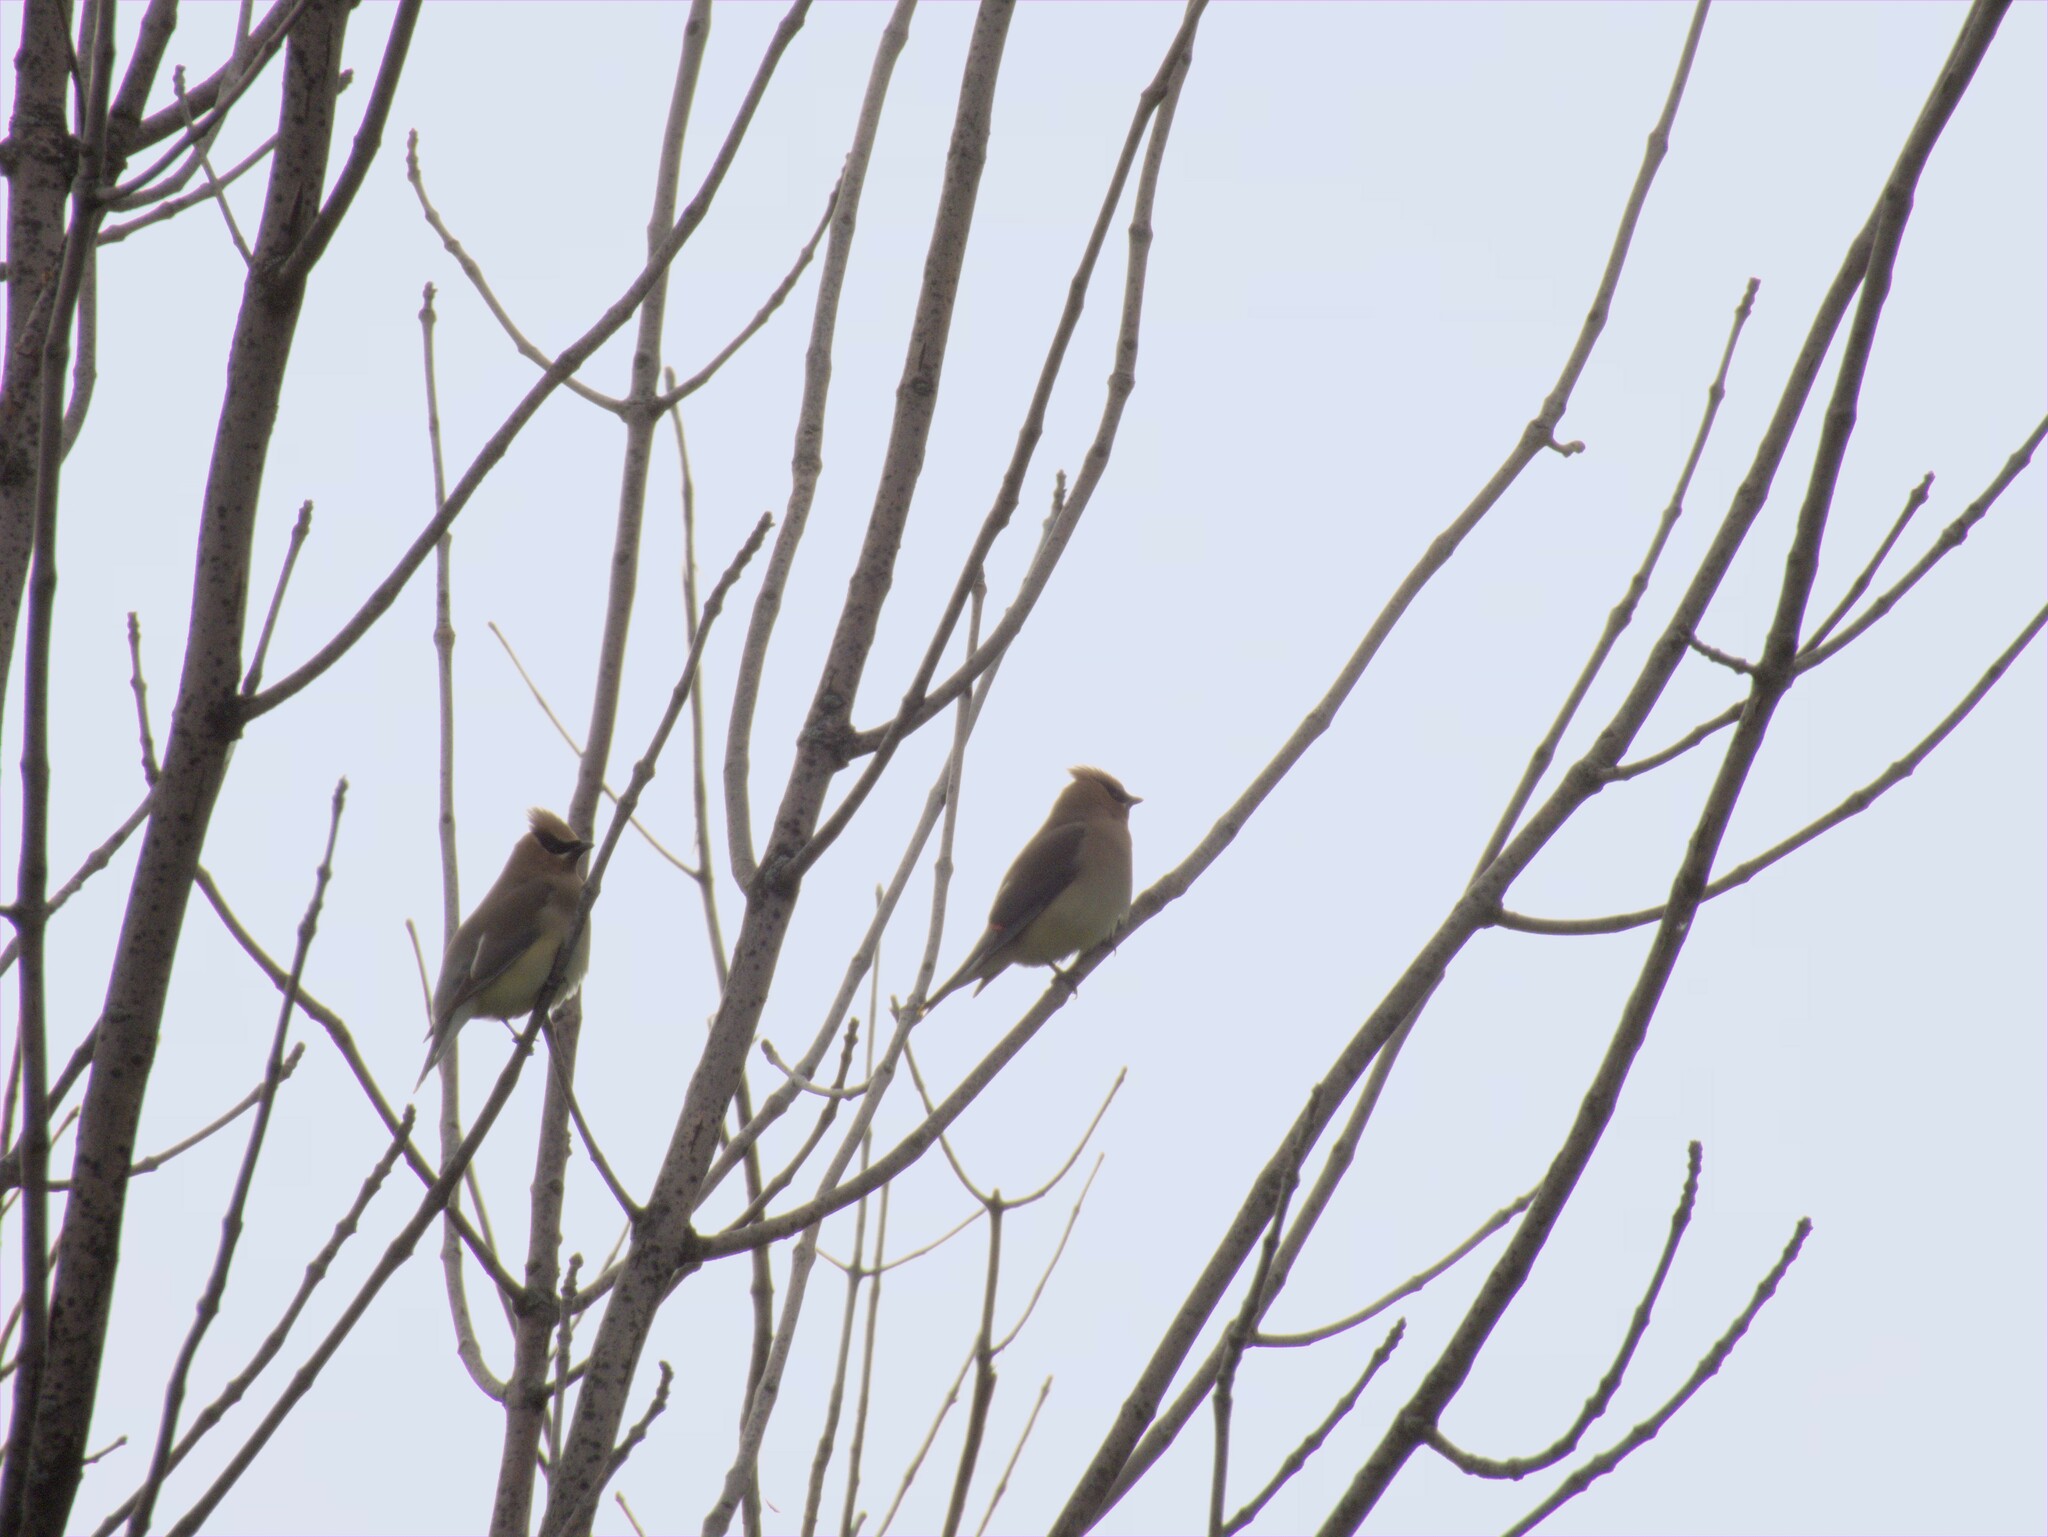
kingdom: Animalia
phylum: Chordata
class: Aves
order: Passeriformes
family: Bombycillidae
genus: Bombycilla
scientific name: Bombycilla cedrorum
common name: Cedar waxwing
